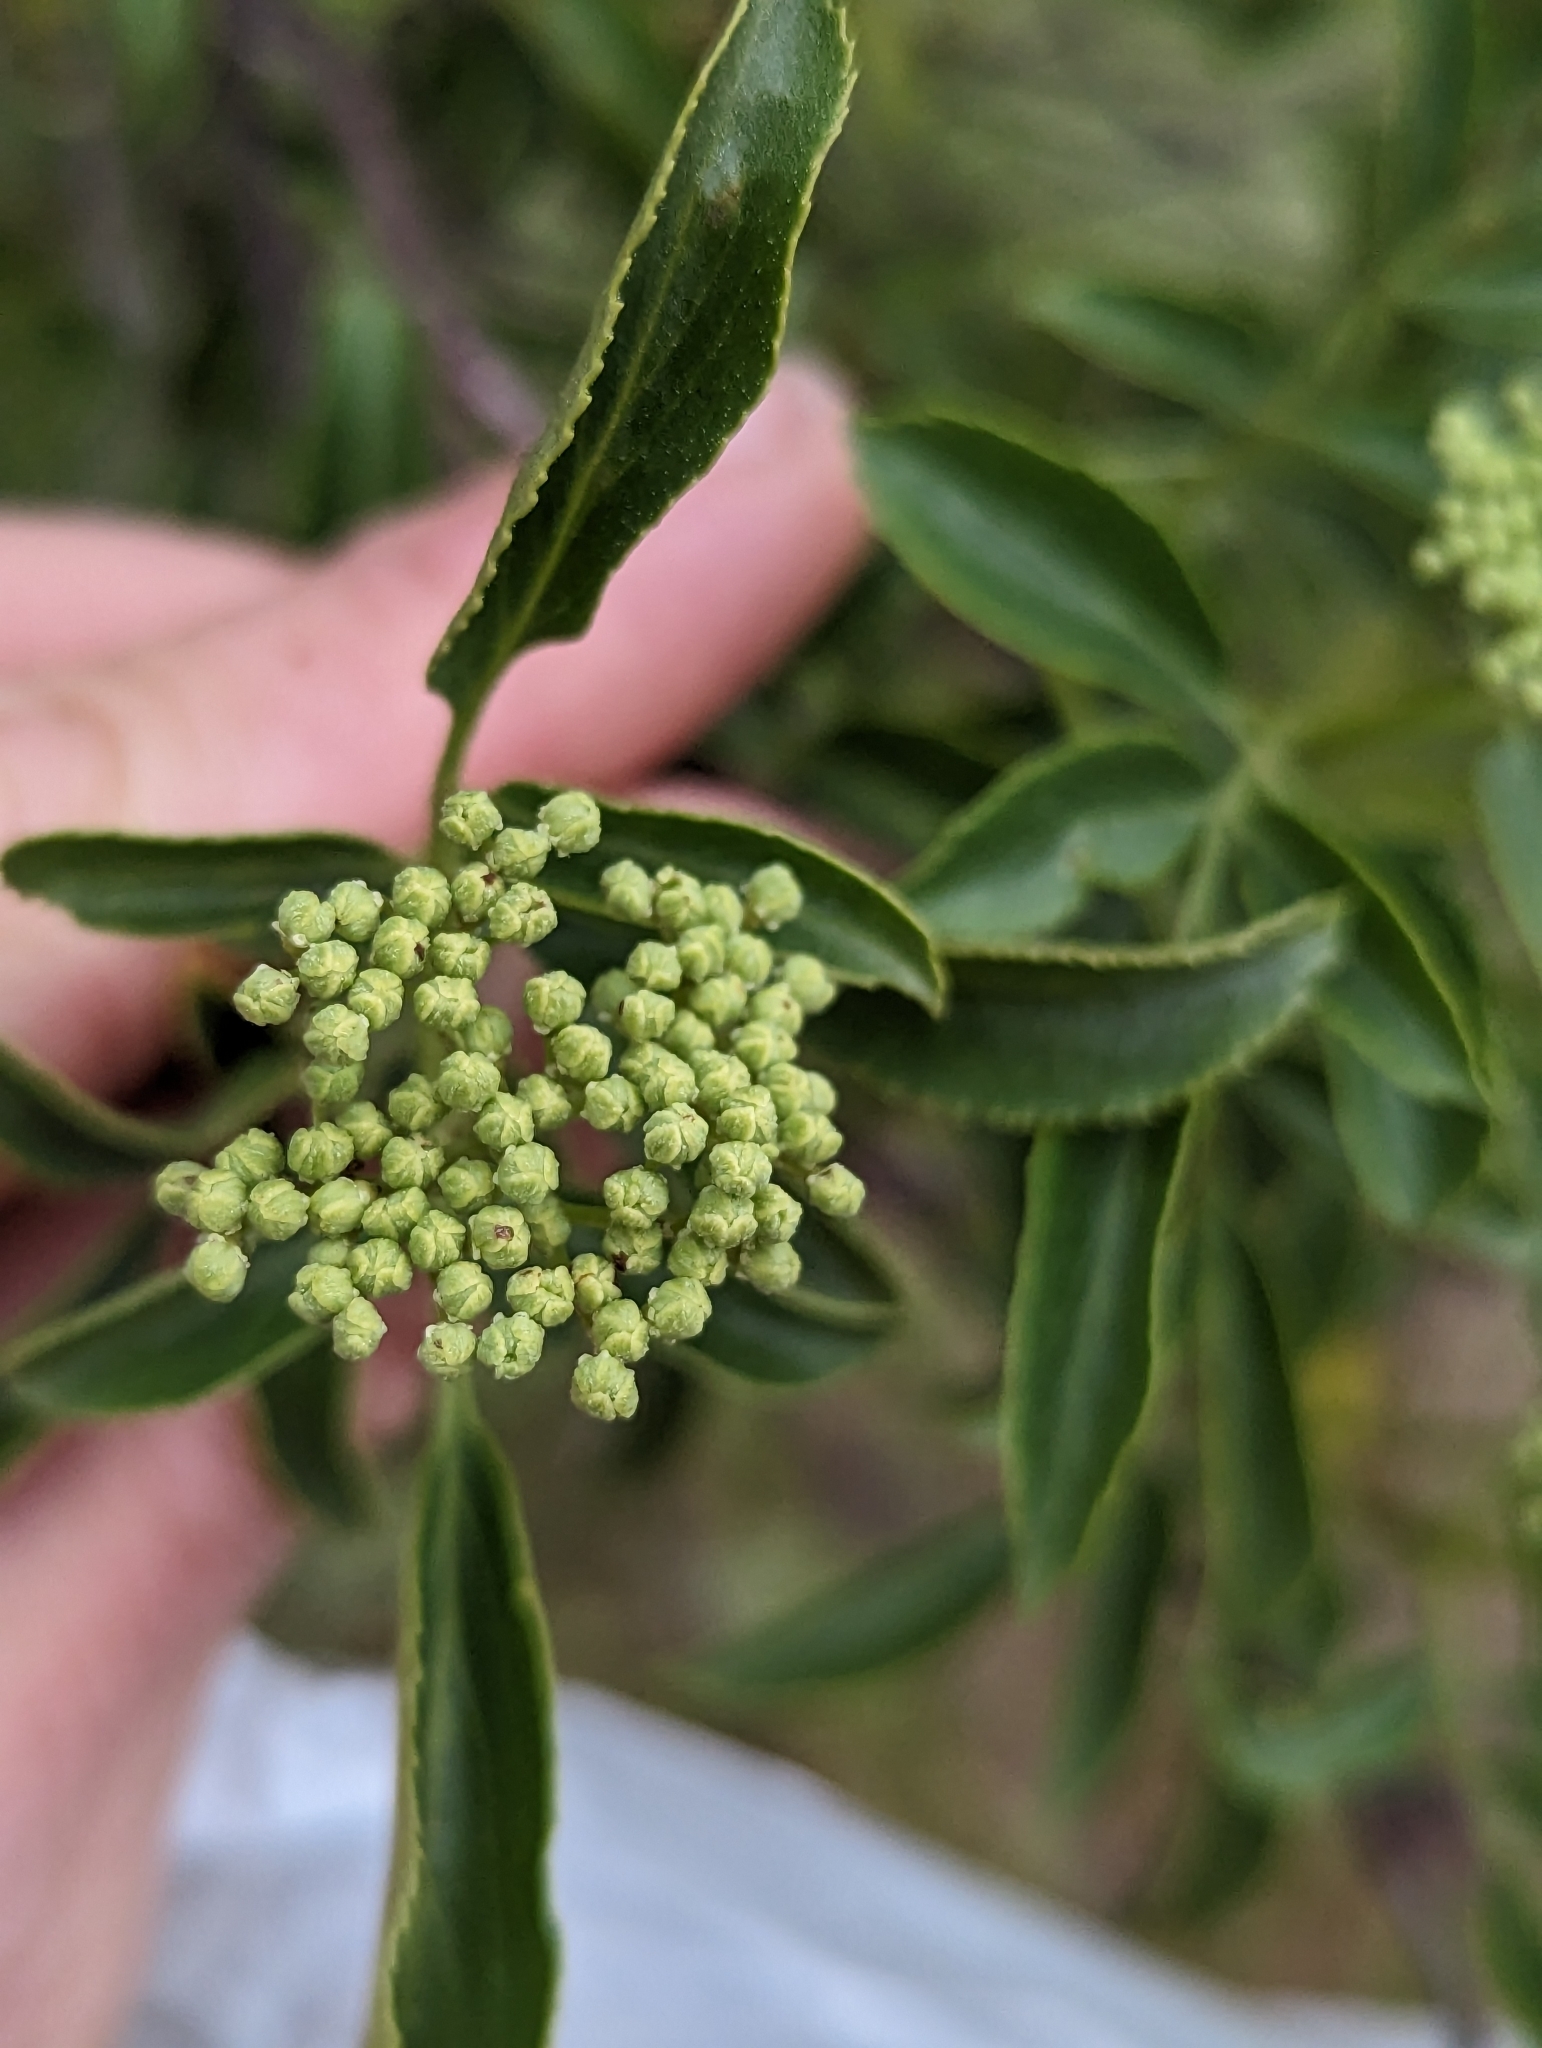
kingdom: Plantae
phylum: Tracheophyta
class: Magnoliopsida
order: Dipsacales
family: Viburnaceae
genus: Sambucus
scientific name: Sambucus cerulea
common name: Blue elder
